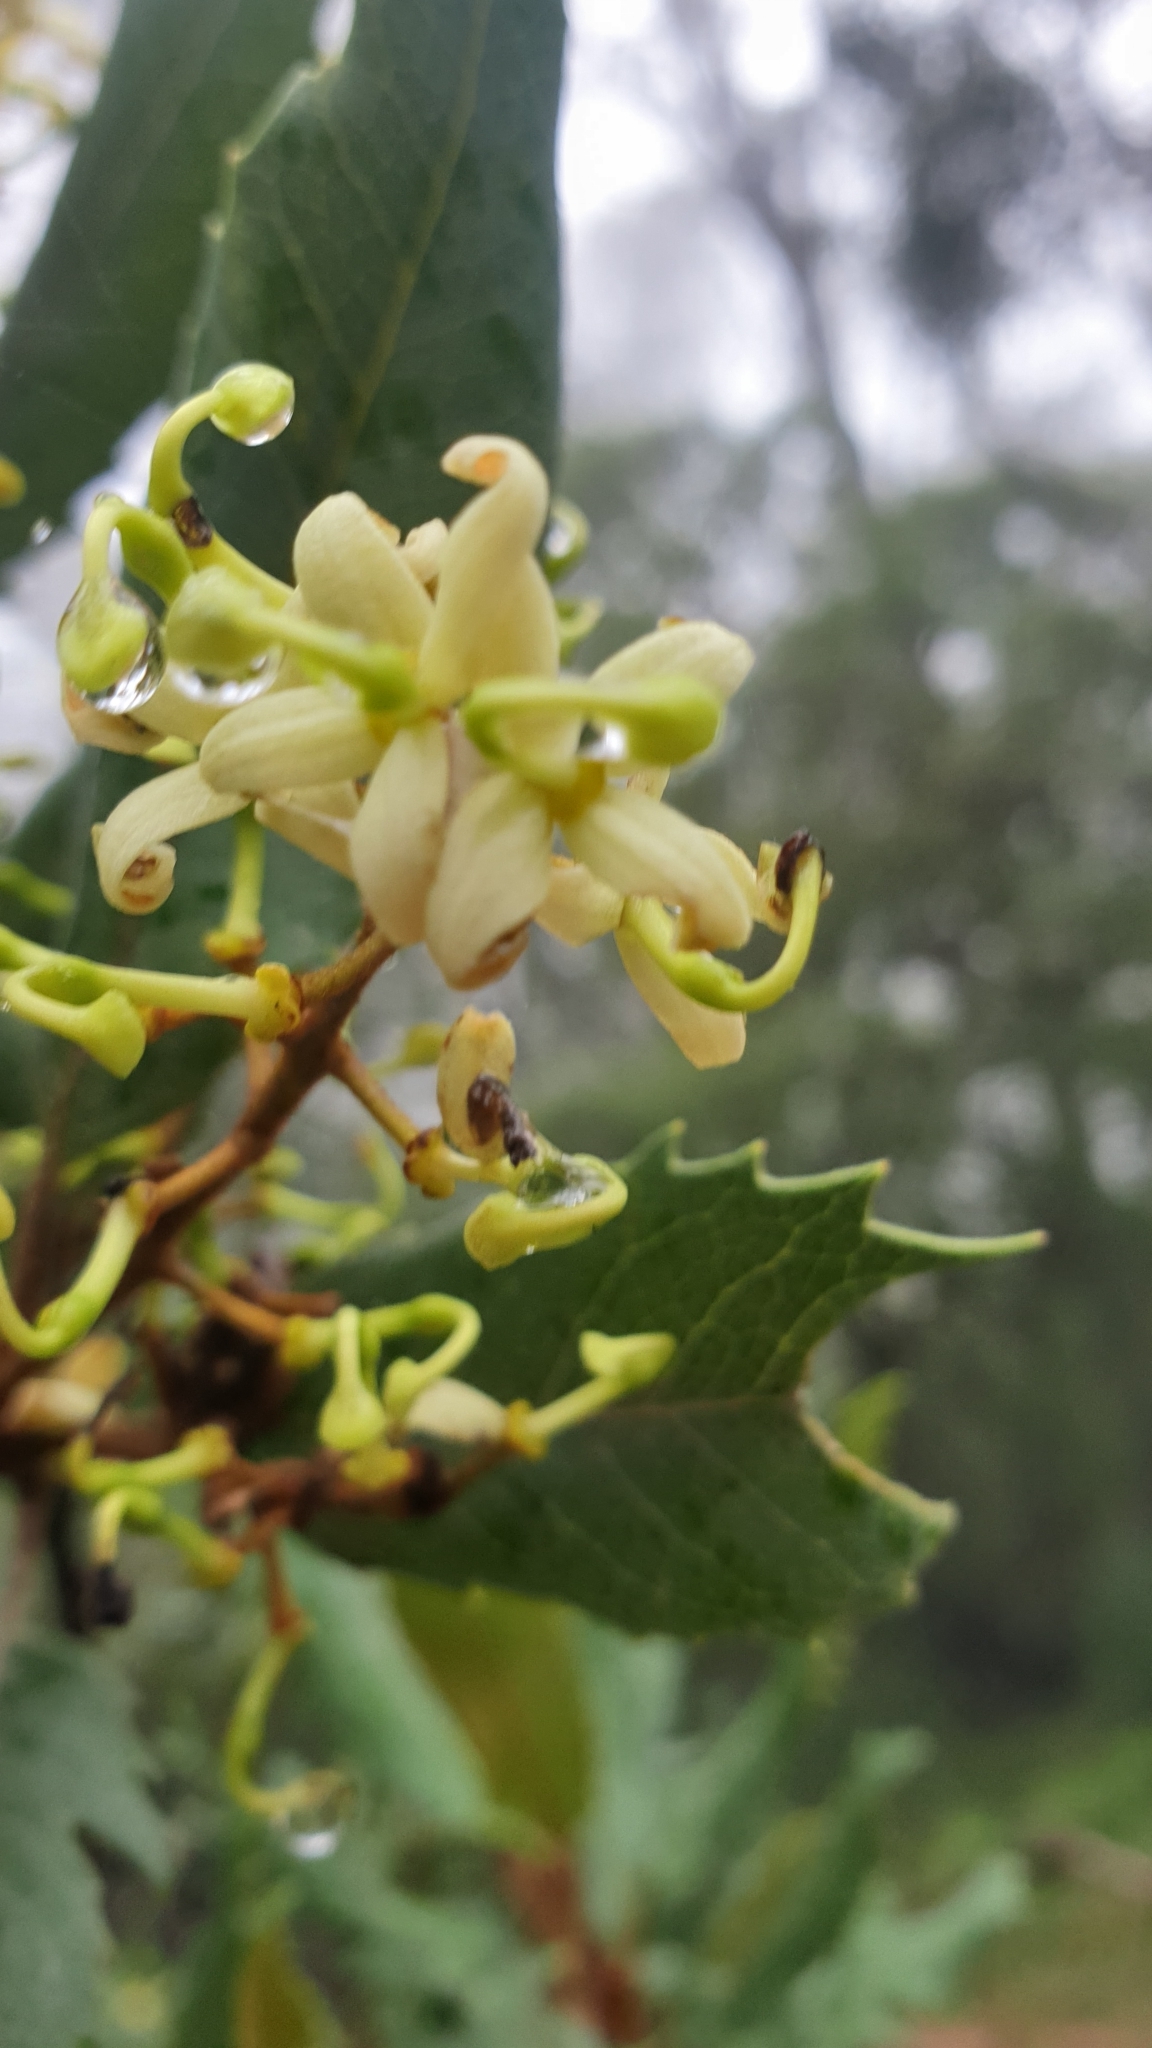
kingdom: Plantae
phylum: Tracheophyta
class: Magnoliopsida
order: Proteales
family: Proteaceae
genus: Lomatia
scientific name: Lomatia fraseri
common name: Forest lomatia
